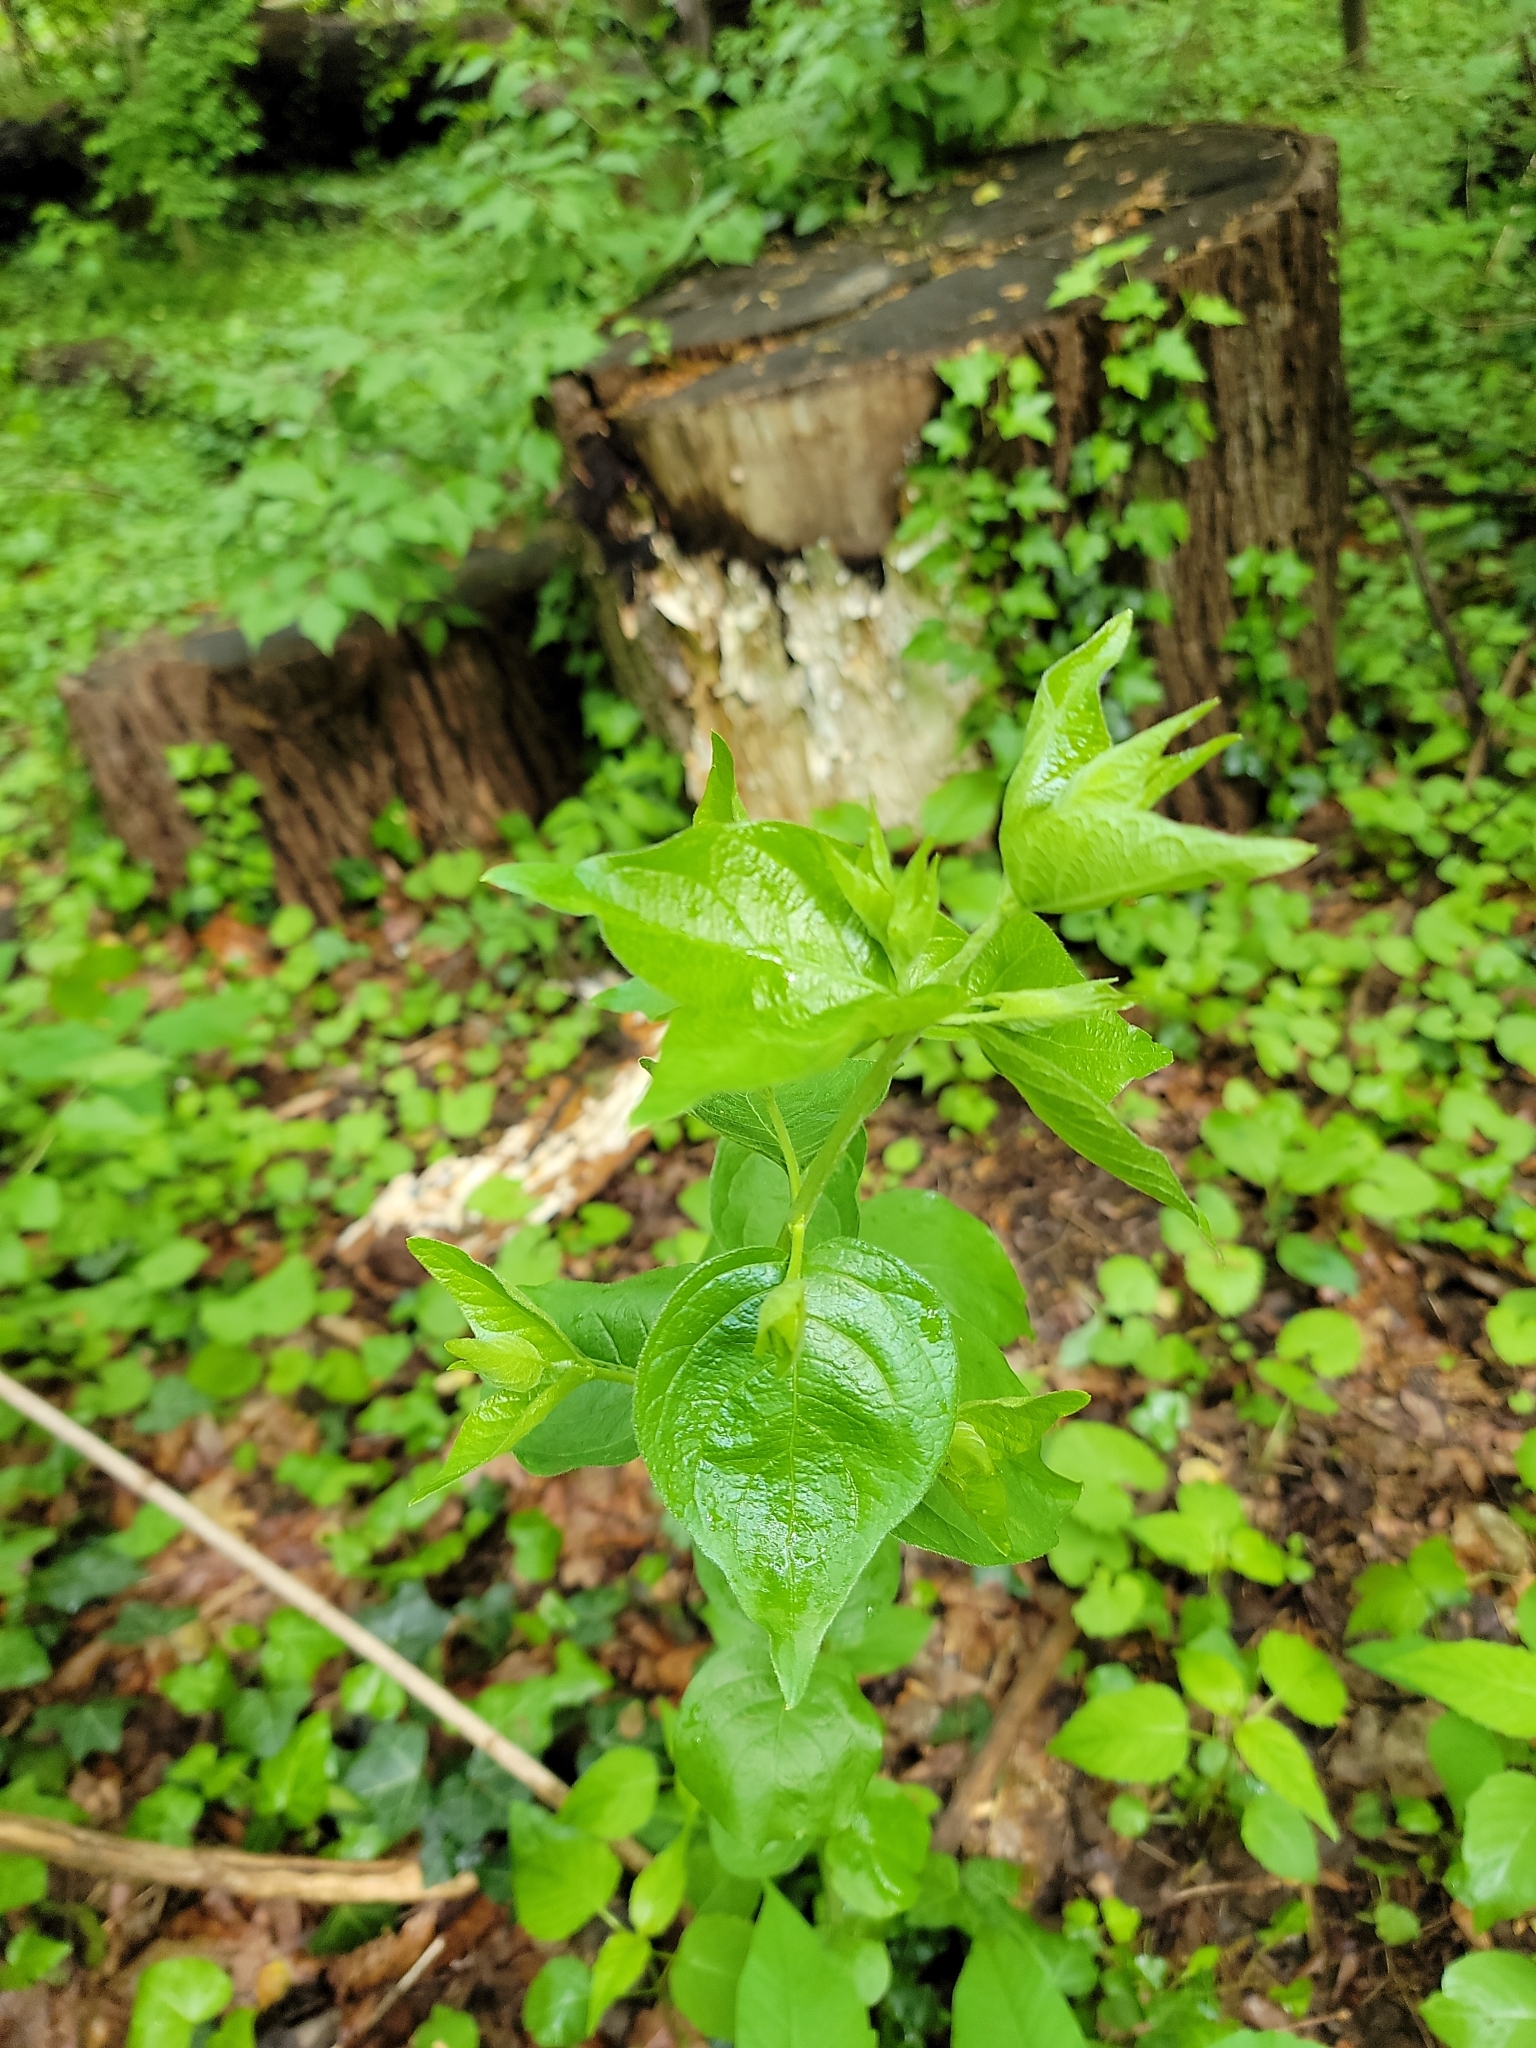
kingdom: Plantae
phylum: Tracheophyta
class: Magnoliopsida
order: Dipsacales
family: Caprifoliaceae
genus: Lonicera
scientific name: Lonicera maackii
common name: Amur honeysuckle
